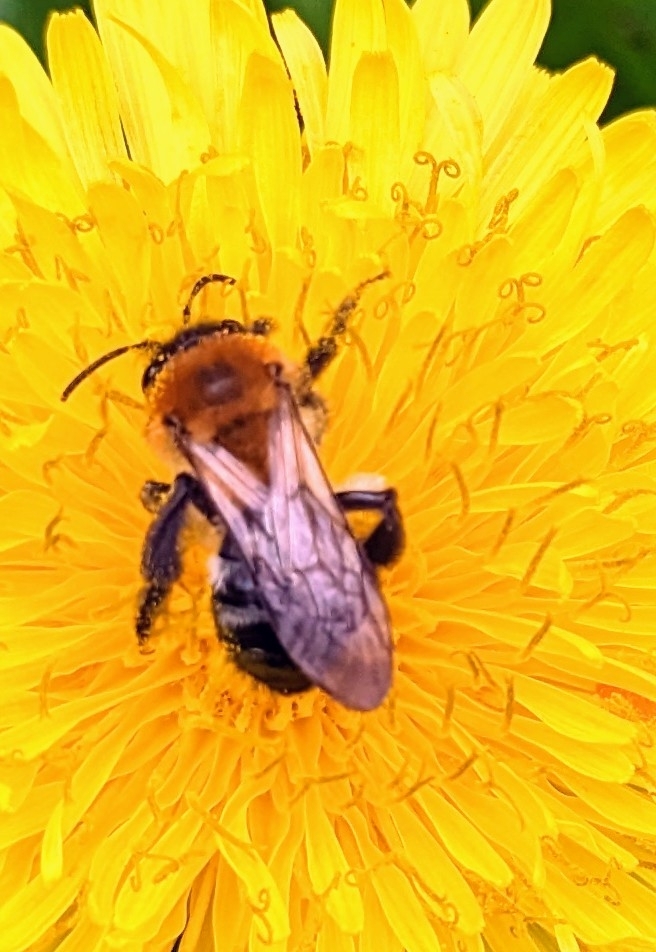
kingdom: Animalia
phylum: Arthropoda
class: Insecta
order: Hymenoptera
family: Andrenidae
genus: Andrena
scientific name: Andrena nitida
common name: Grey-patched mining bee
